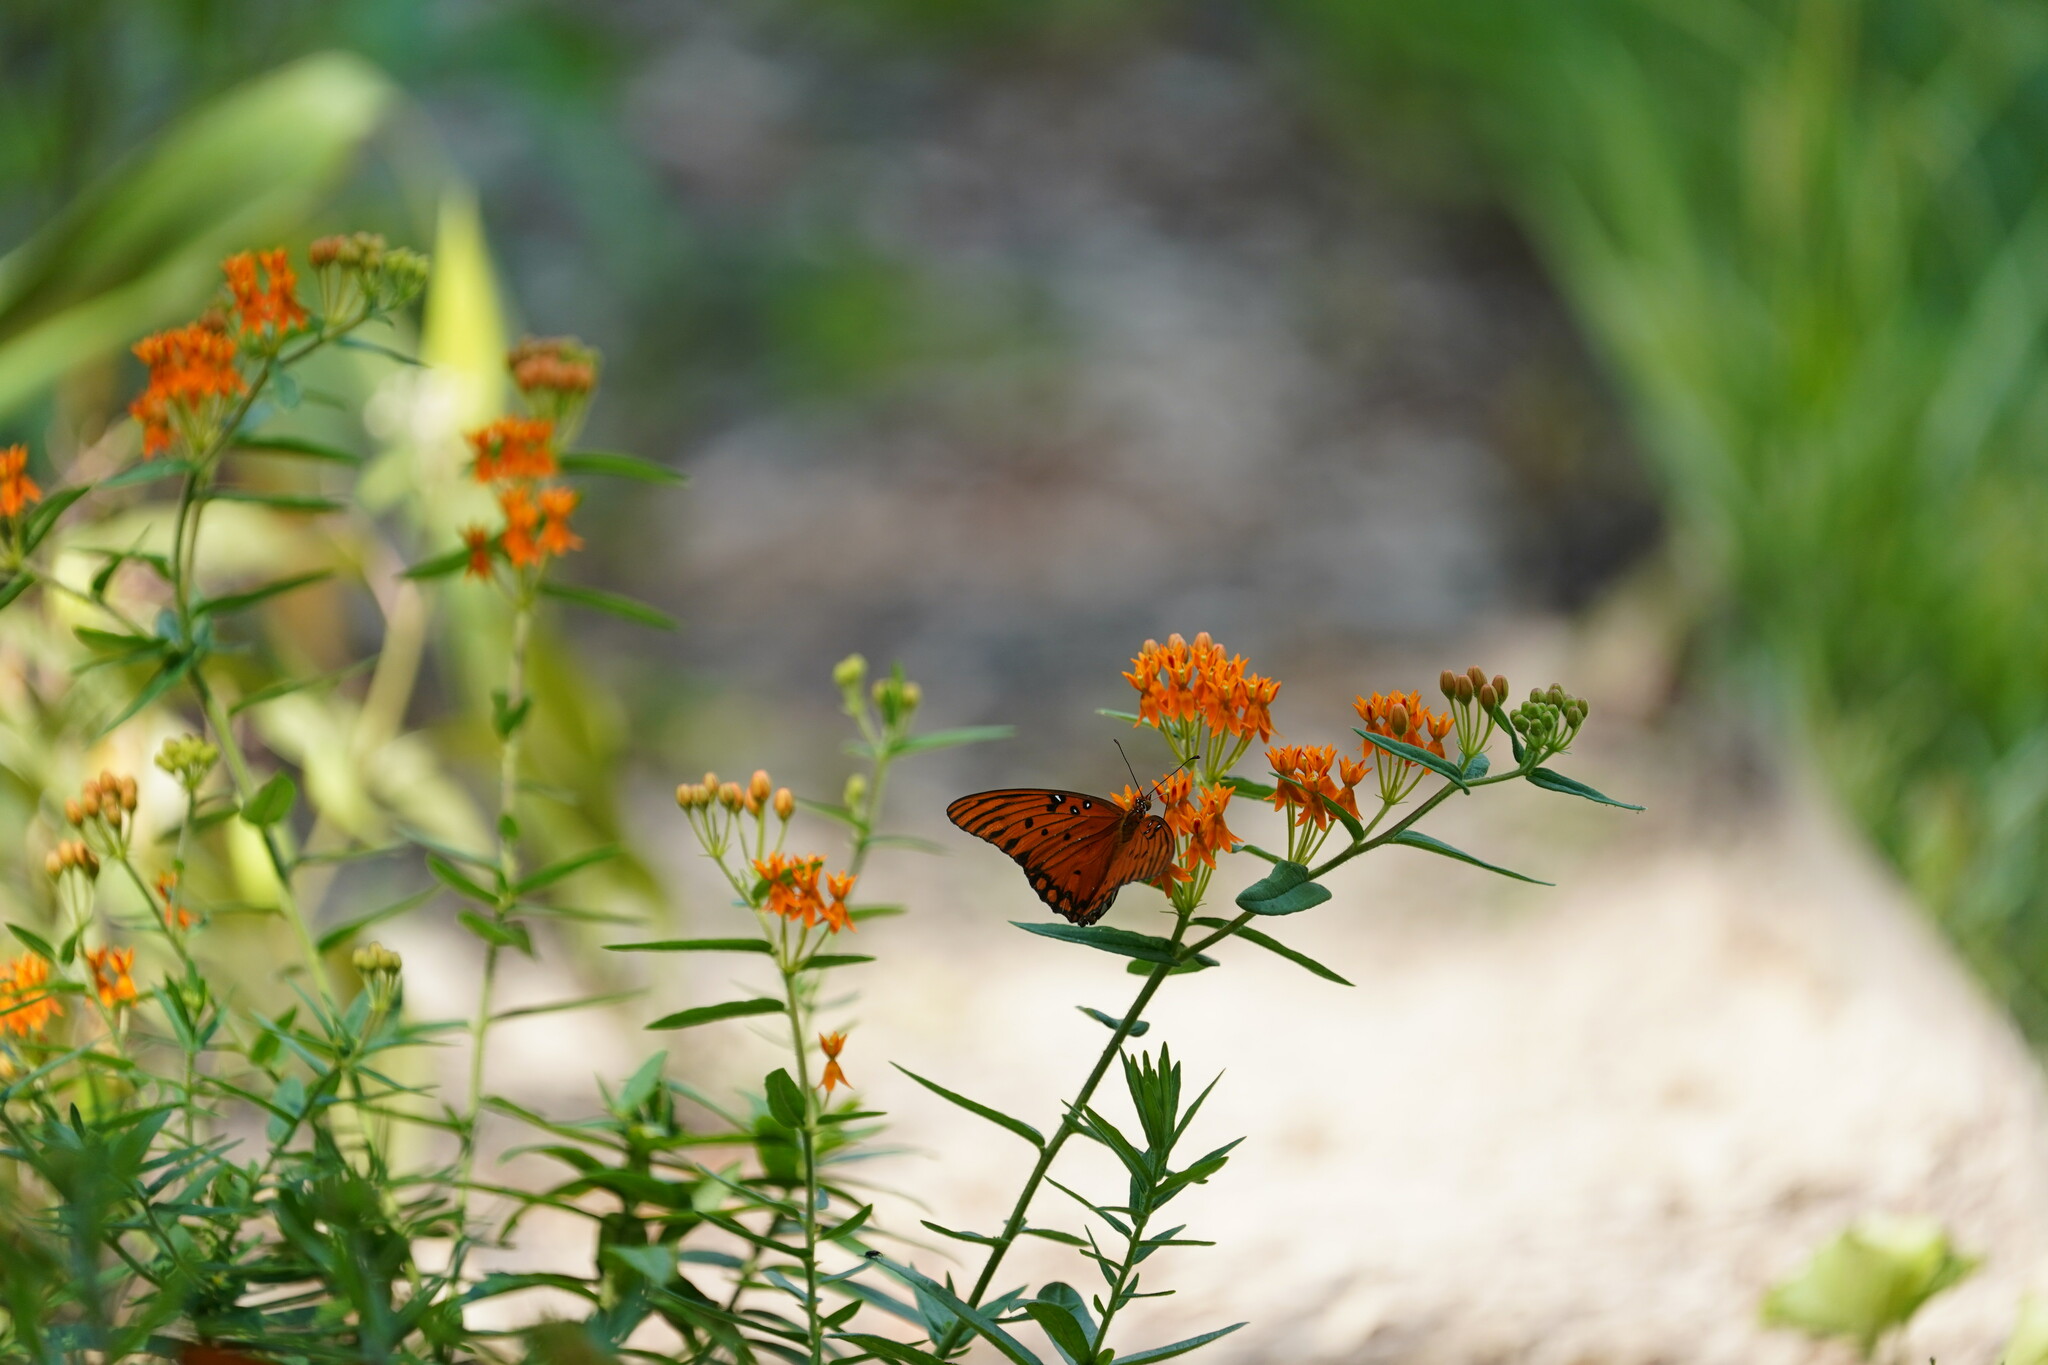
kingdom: Animalia
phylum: Arthropoda
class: Insecta
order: Lepidoptera
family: Nymphalidae
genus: Dione
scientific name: Dione vanillae
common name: Gulf fritillary
